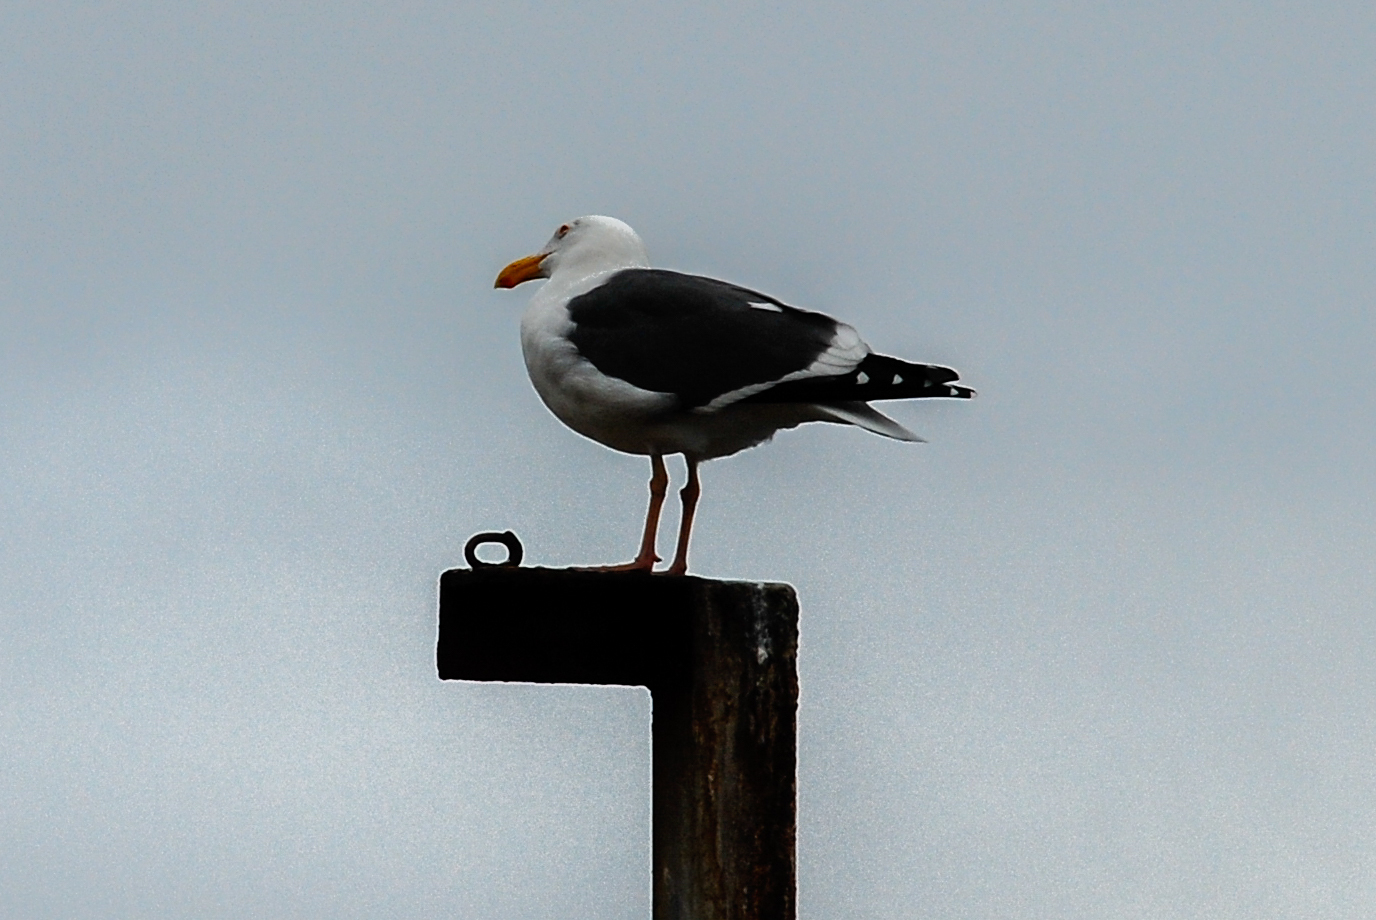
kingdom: Animalia
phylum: Chordata
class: Aves
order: Charadriiformes
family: Laridae
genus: Larus
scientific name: Larus occidentalis
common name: Western gull
